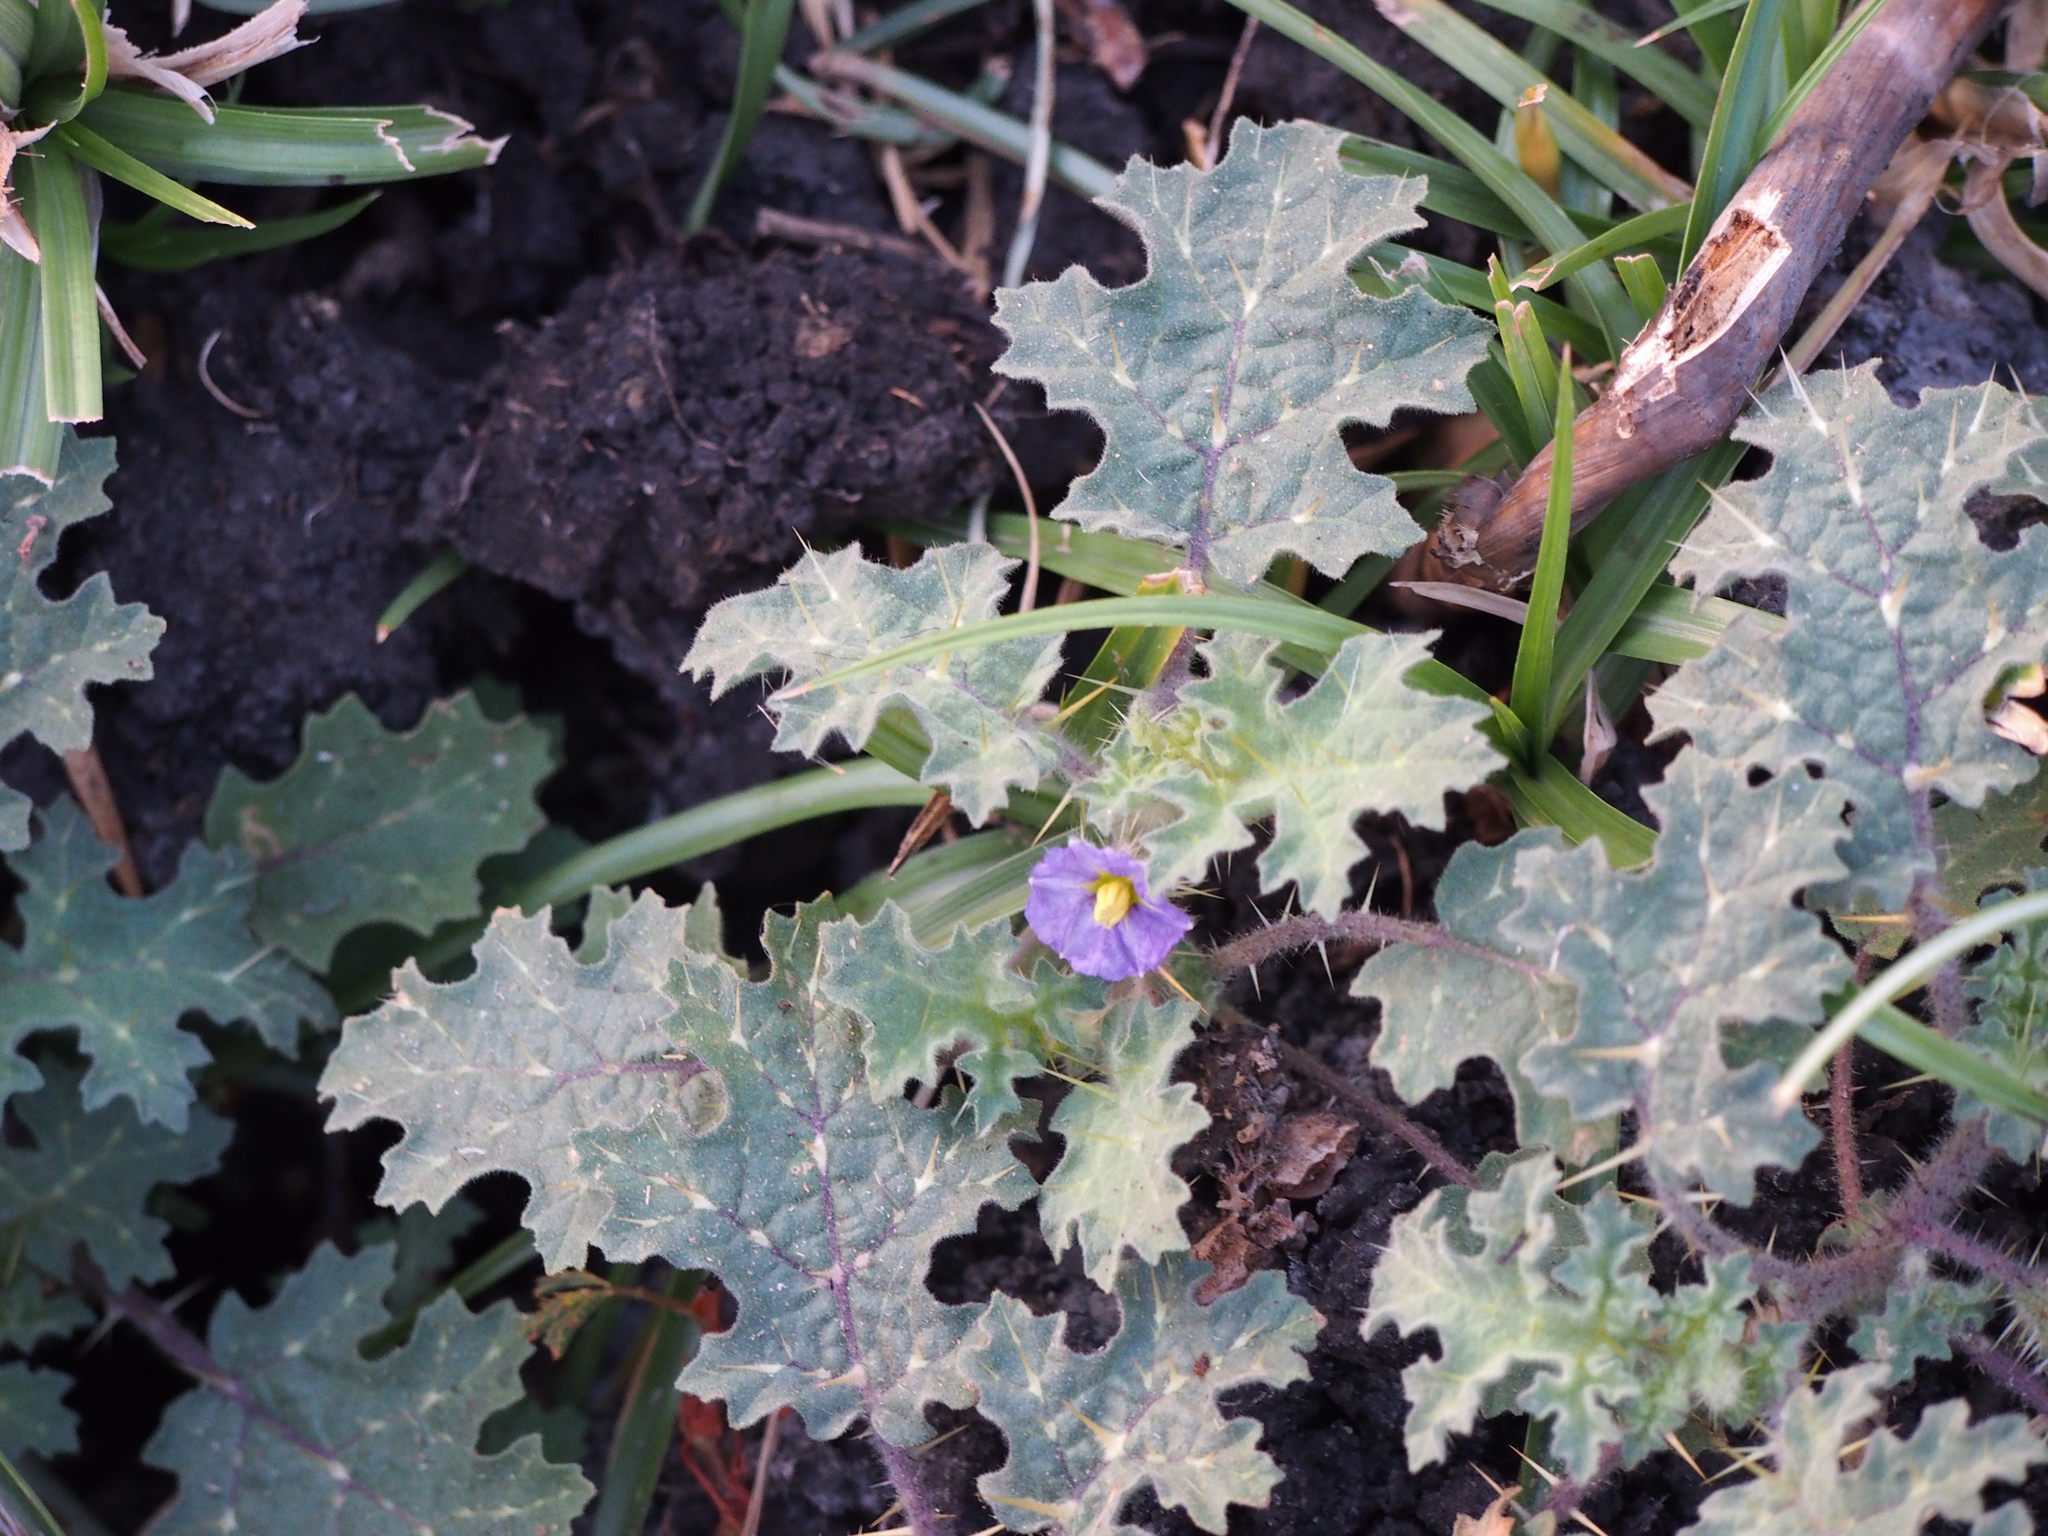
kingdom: Plantae
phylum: Tracheophyta
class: Magnoliopsida
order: Solanales
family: Solanaceae
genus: Solanum
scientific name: Solanum campechiense
